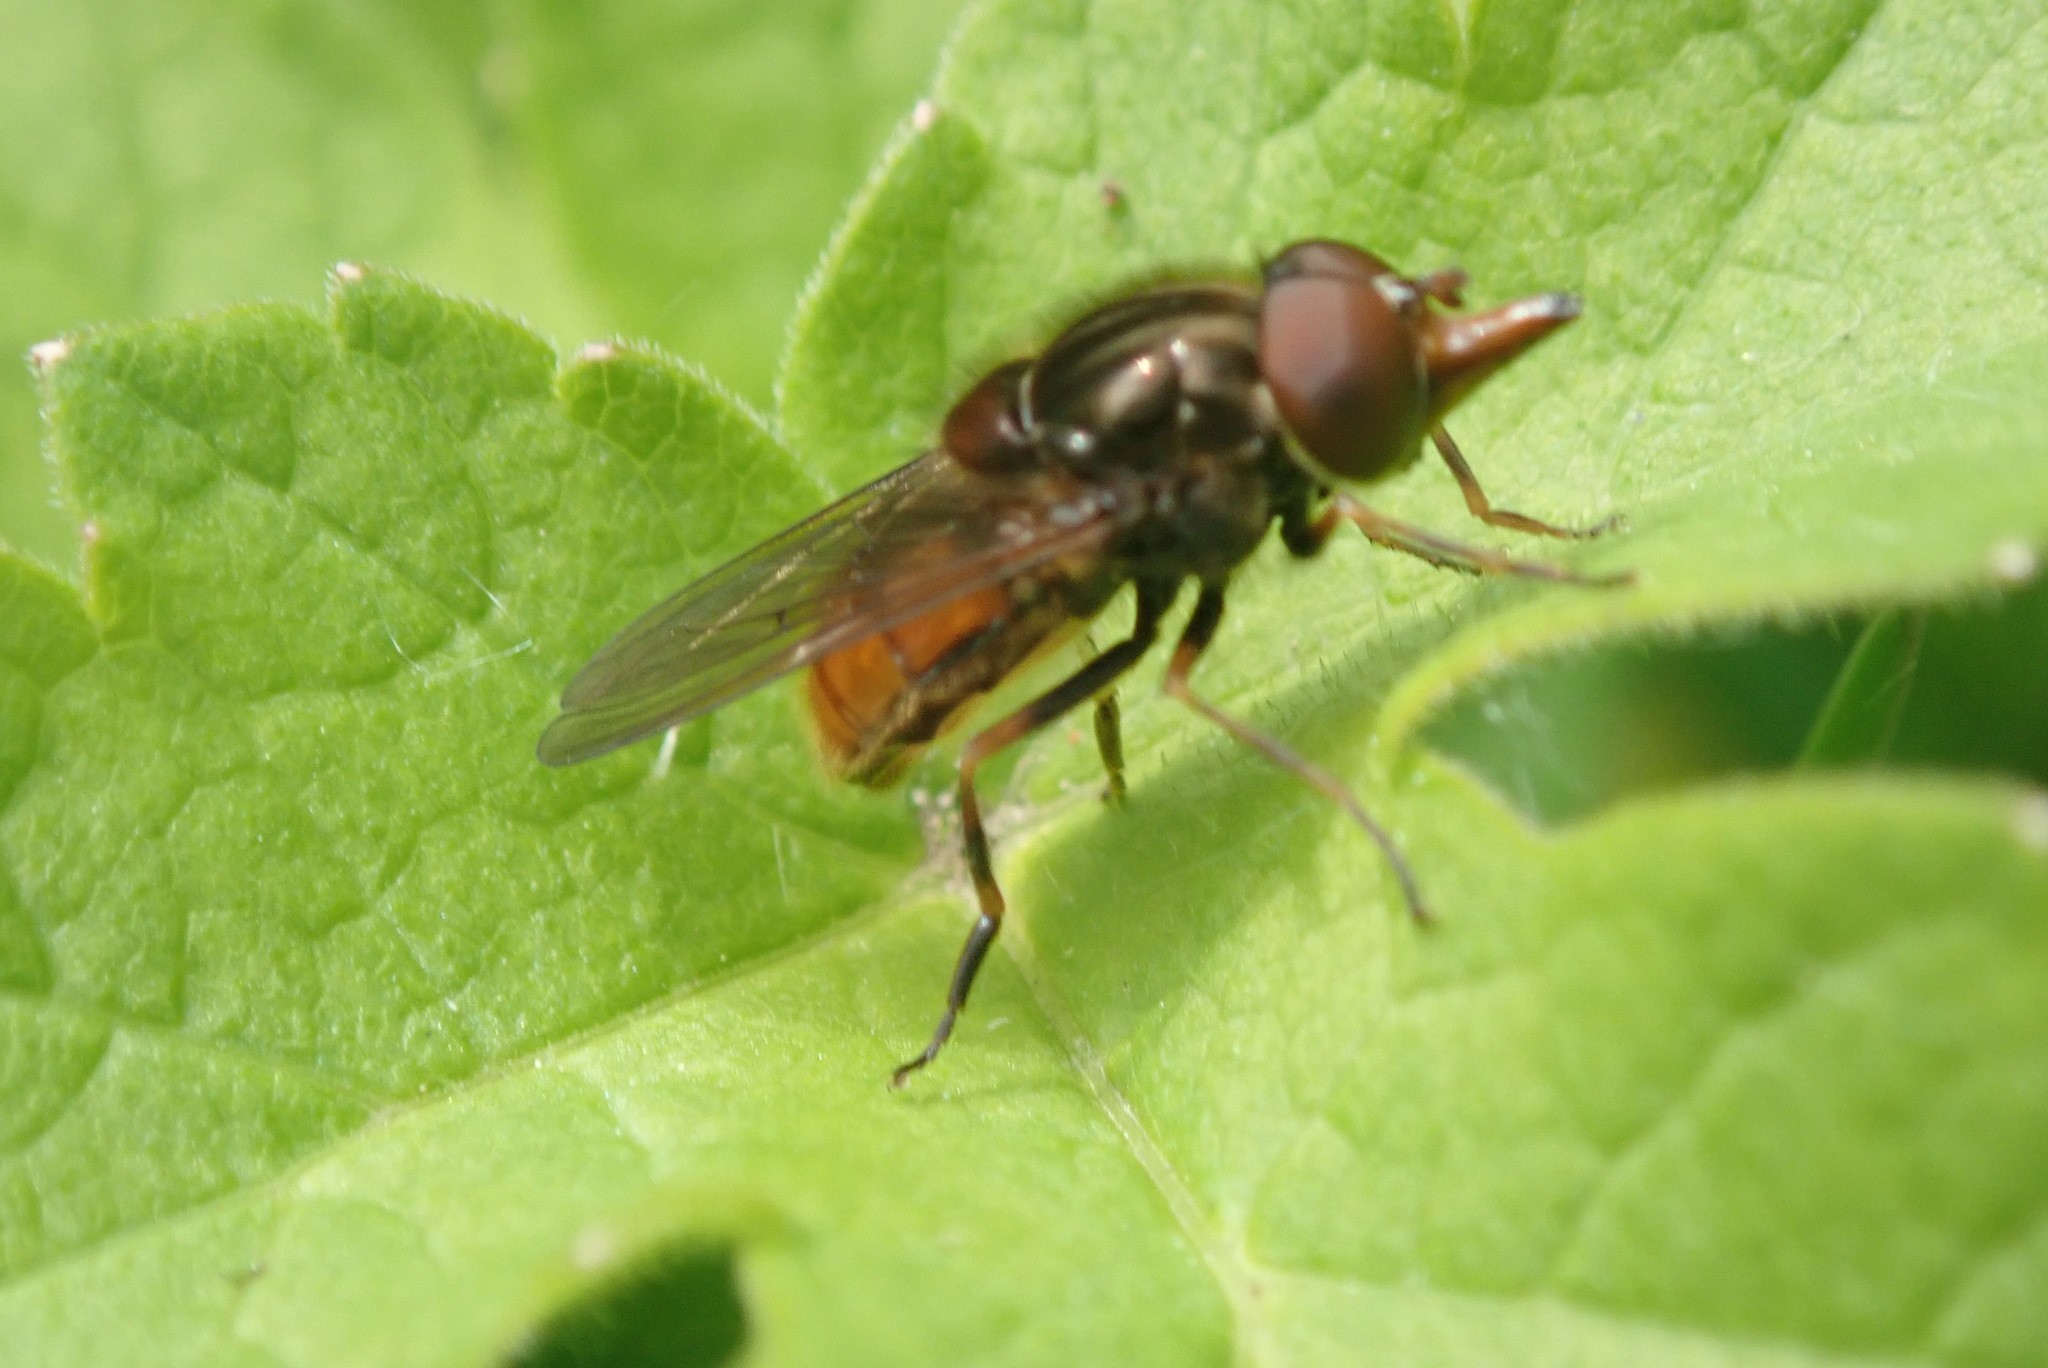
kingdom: Animalia
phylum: Arthropoda
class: Insecta
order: Diptera
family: Syrphidae
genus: Rhingia
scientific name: Rhingia campestris
